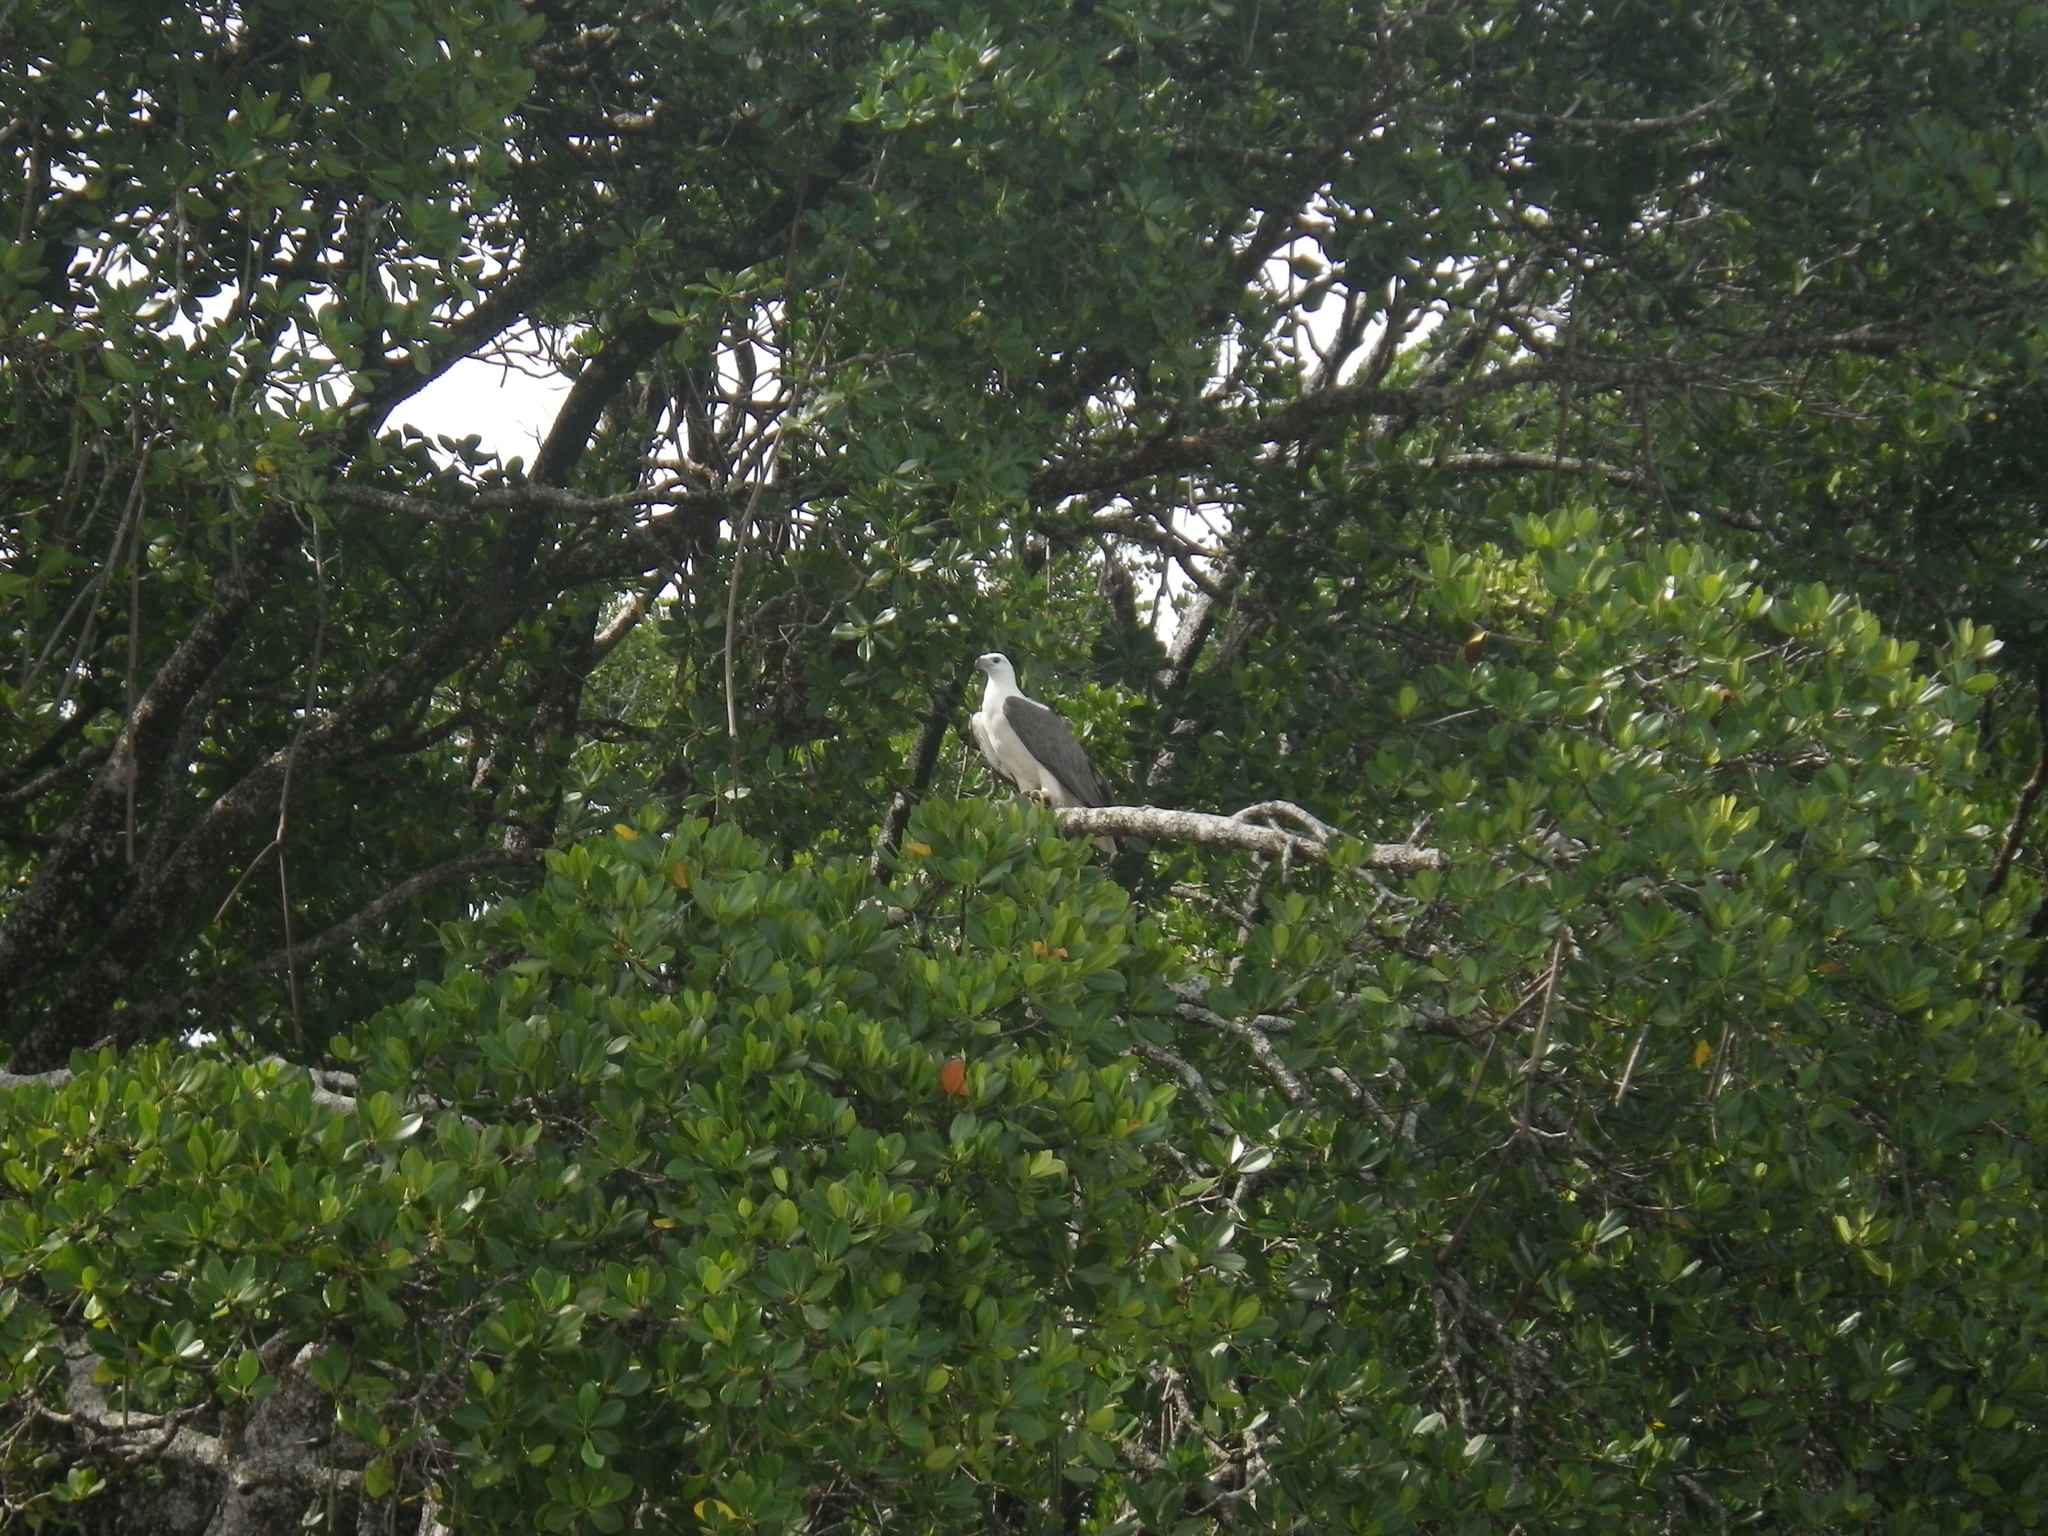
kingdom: Animalia
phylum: Chordata
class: Aves
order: Accipitriformes
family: Accipitridae
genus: Haliaeetus
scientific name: Haliaeetus leucogaster
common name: White-bellied sea eagle
